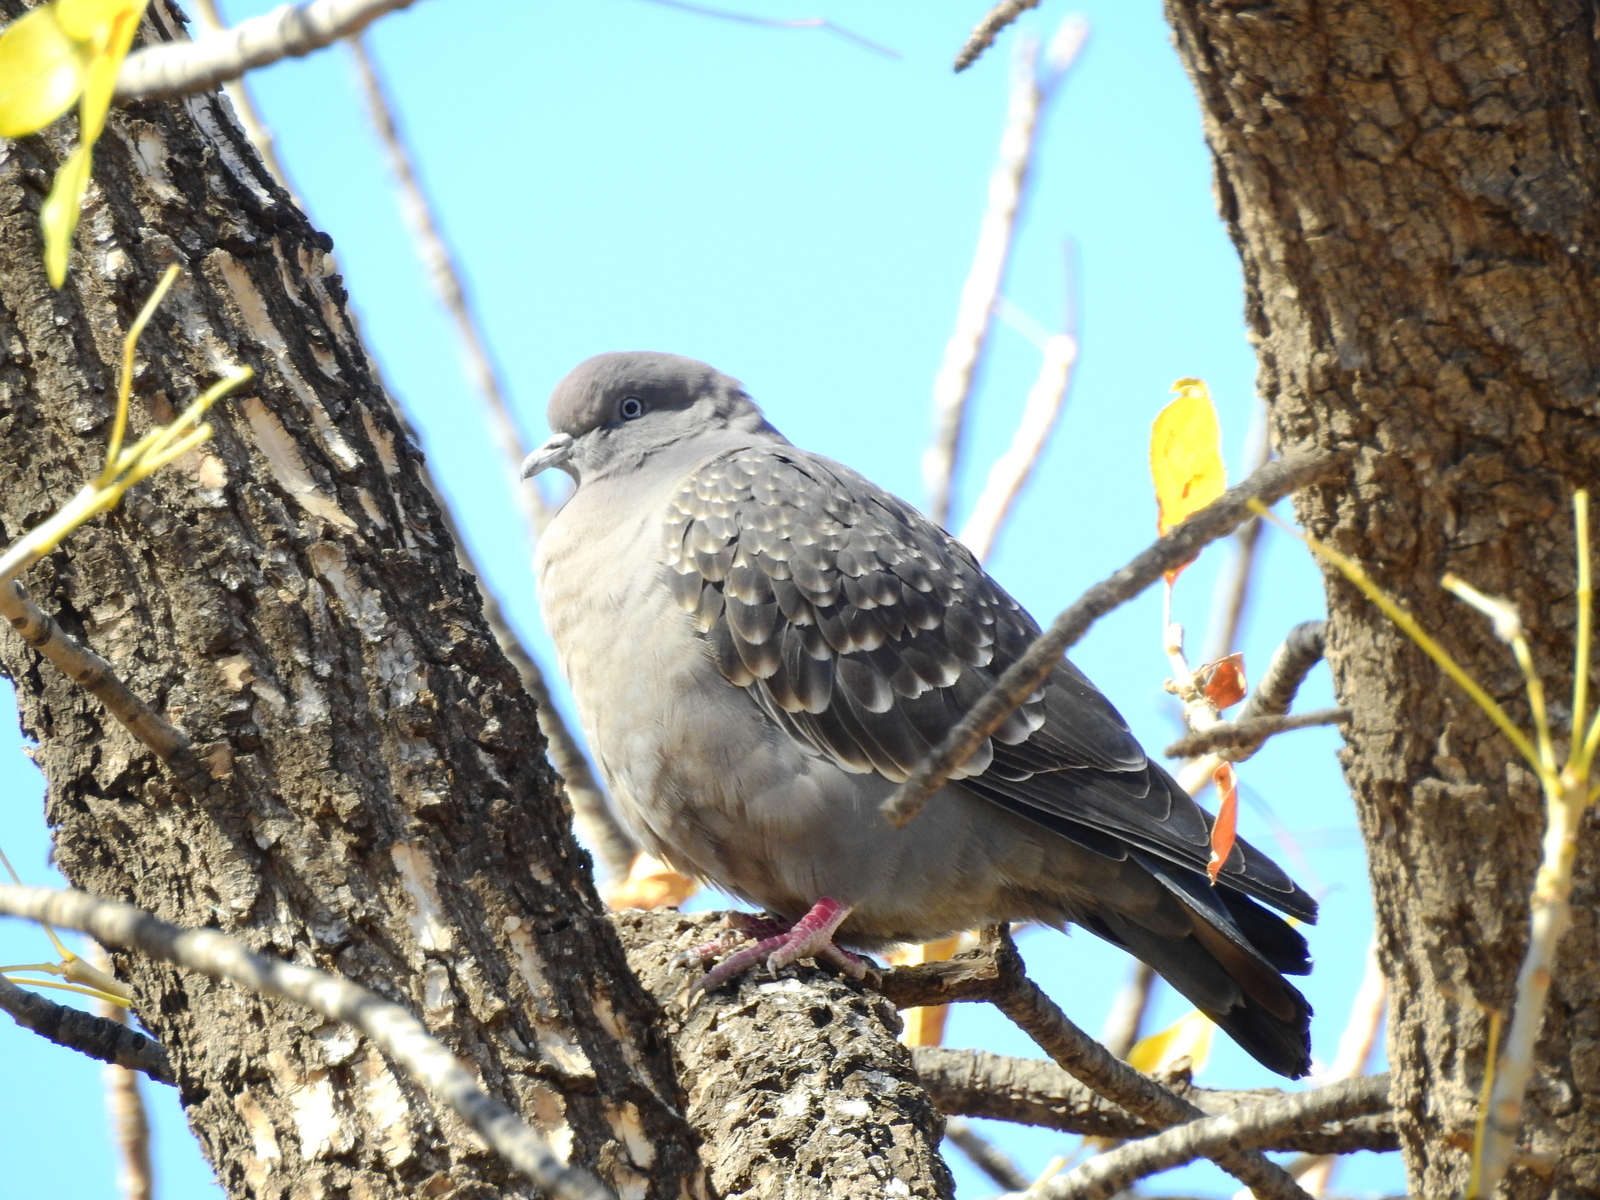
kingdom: Animalia
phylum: Chordata
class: Aves
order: Columbiformes
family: Columbidae
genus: Patagioenas
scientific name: Patagioenas maculosa
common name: Spot-winged pigeon
